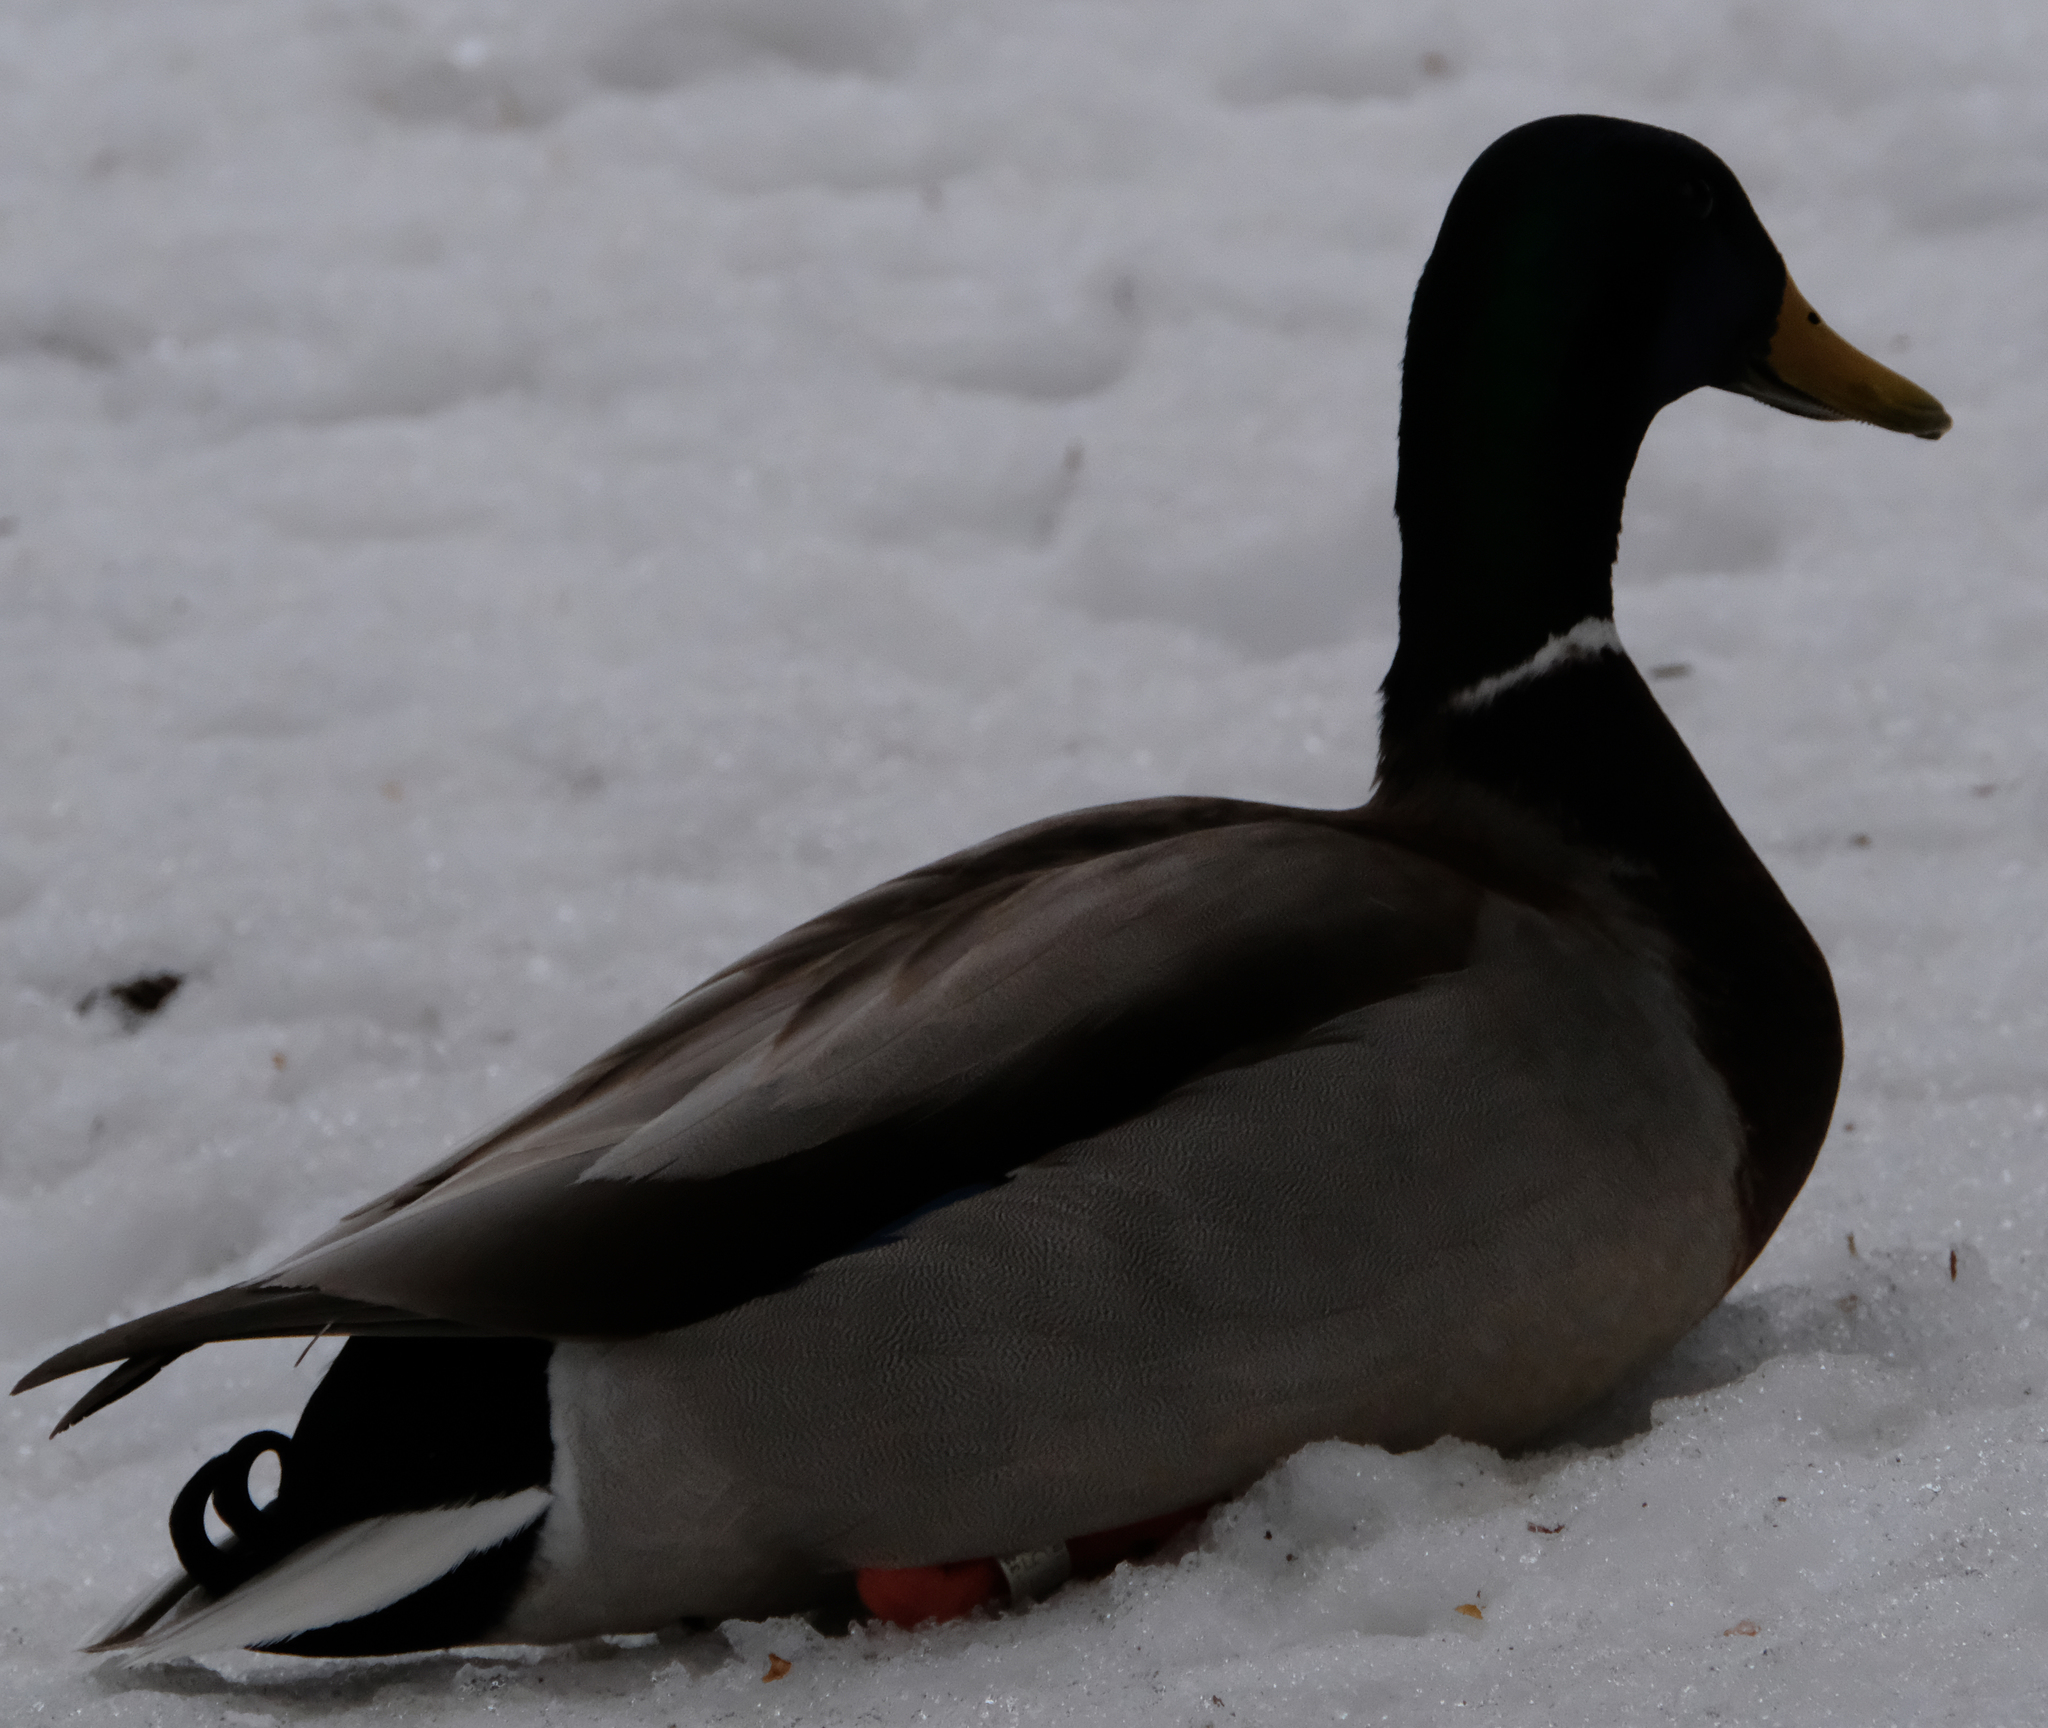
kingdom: Animalia
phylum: Chordata
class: Aves
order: Anseriformes
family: Anatidae
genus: Anas
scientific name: Anas platyrhynchos
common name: Mallard
